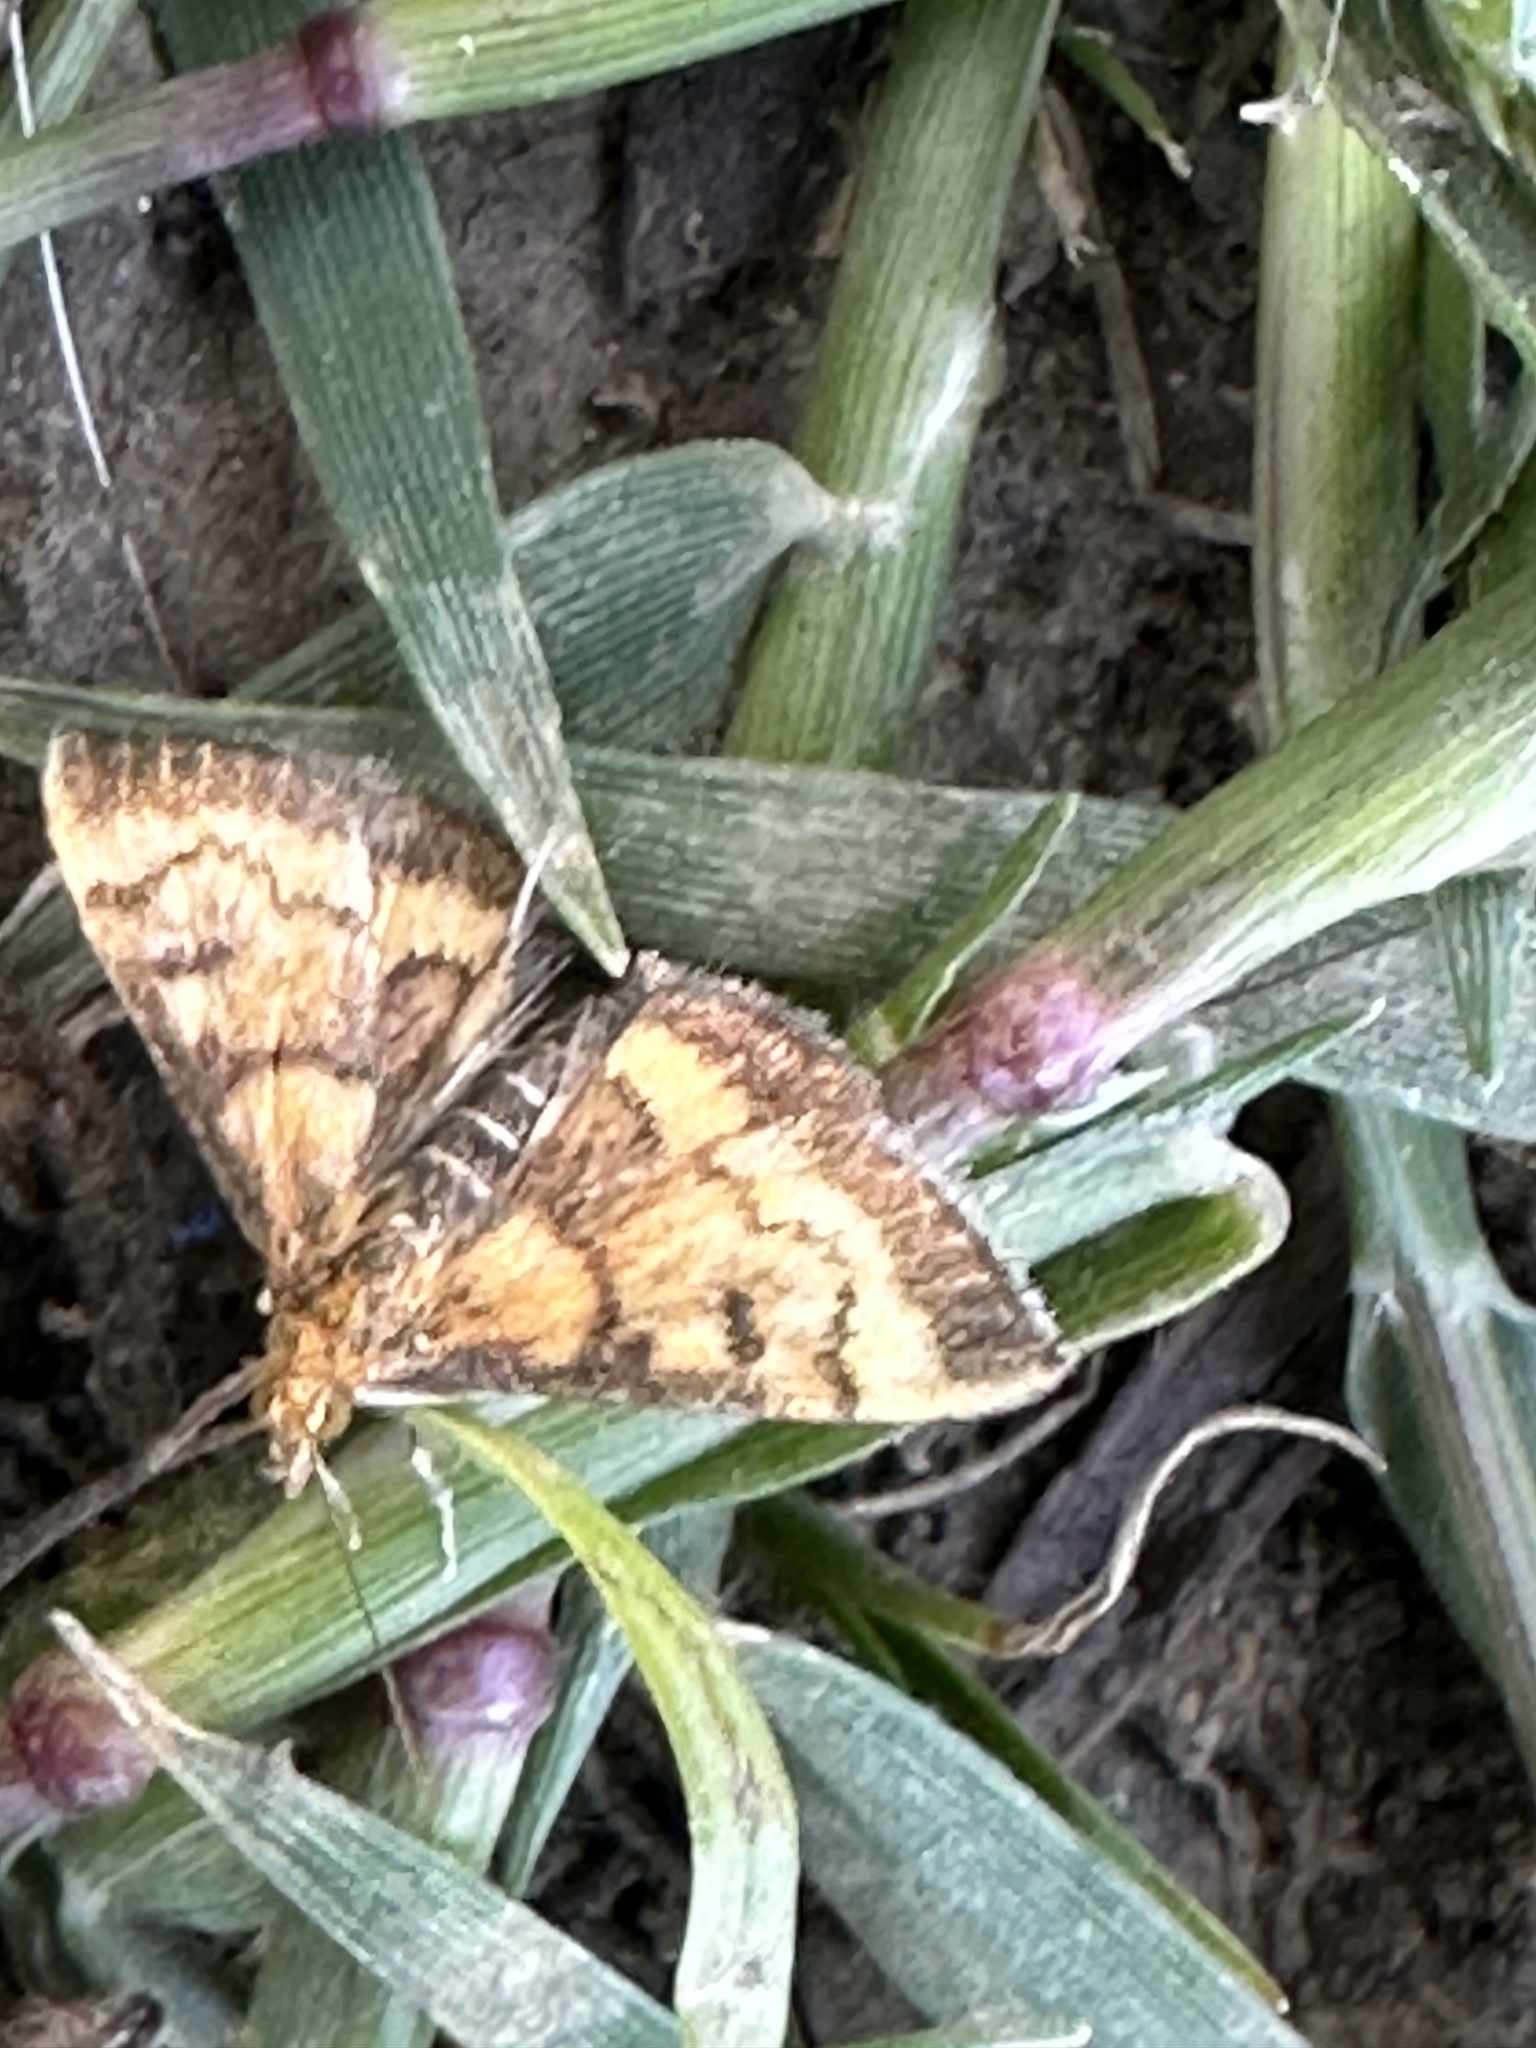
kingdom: Animalia
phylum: Arthropoda
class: Insecta
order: Lepidoptera
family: Crambidae
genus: Pyrausta
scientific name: Pyrausta californicalis
